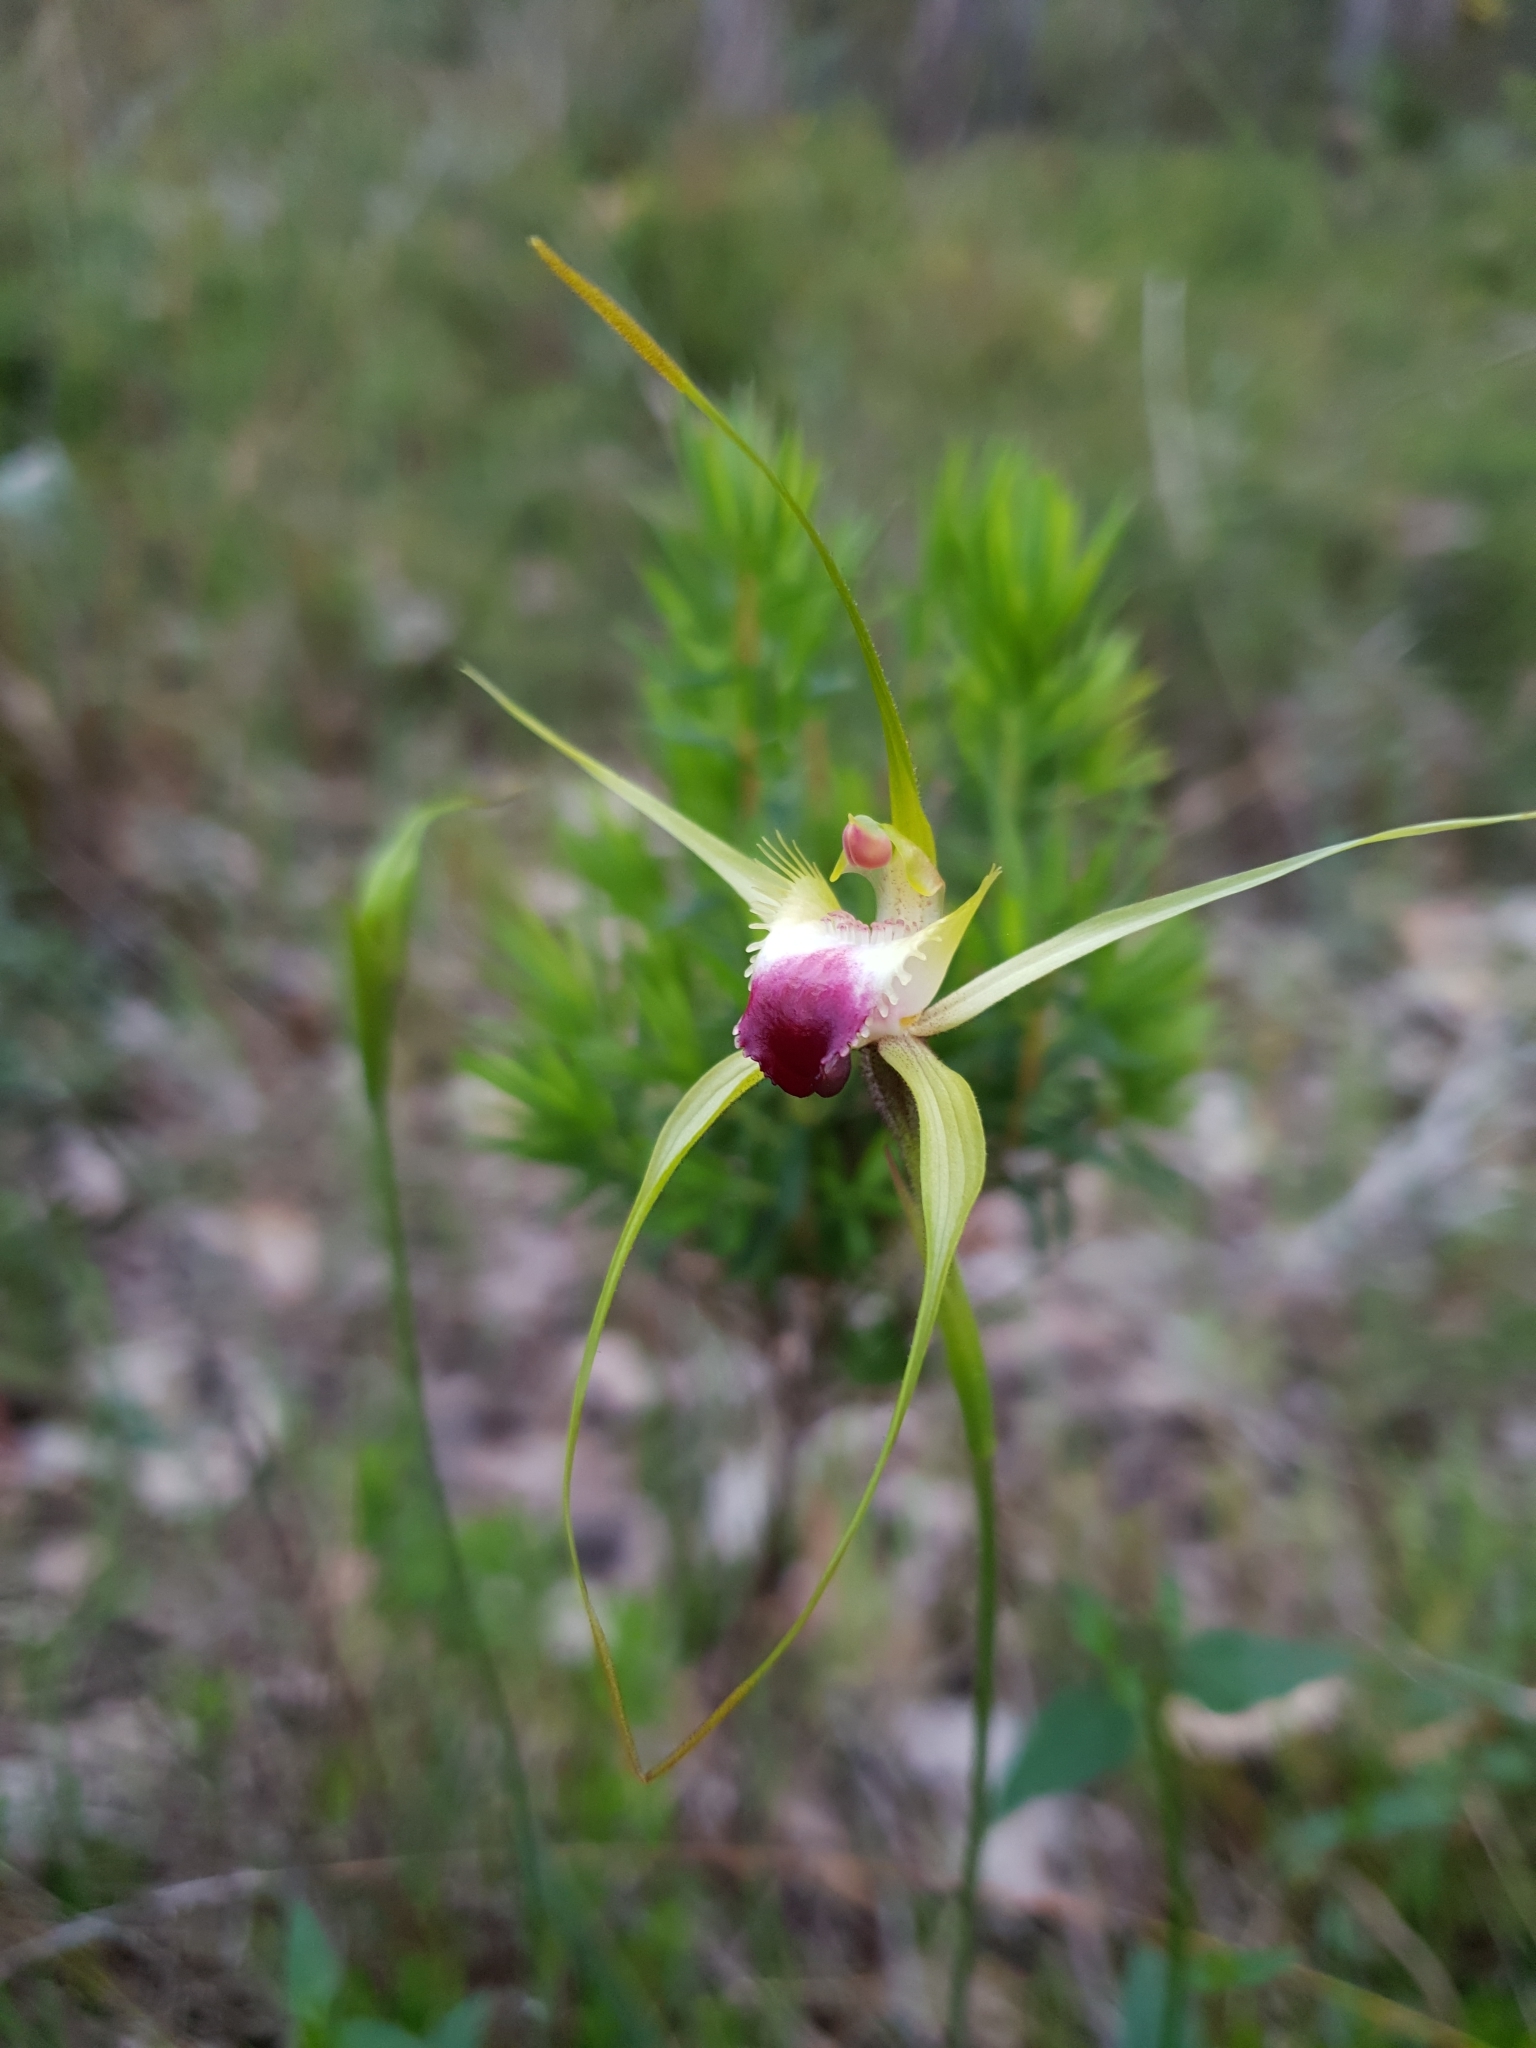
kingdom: Plantae
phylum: Tracheophyta
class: Liliopsida
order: Asparagales
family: Orchidaceae
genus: Caladenia
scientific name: Caladenia infundibularis
